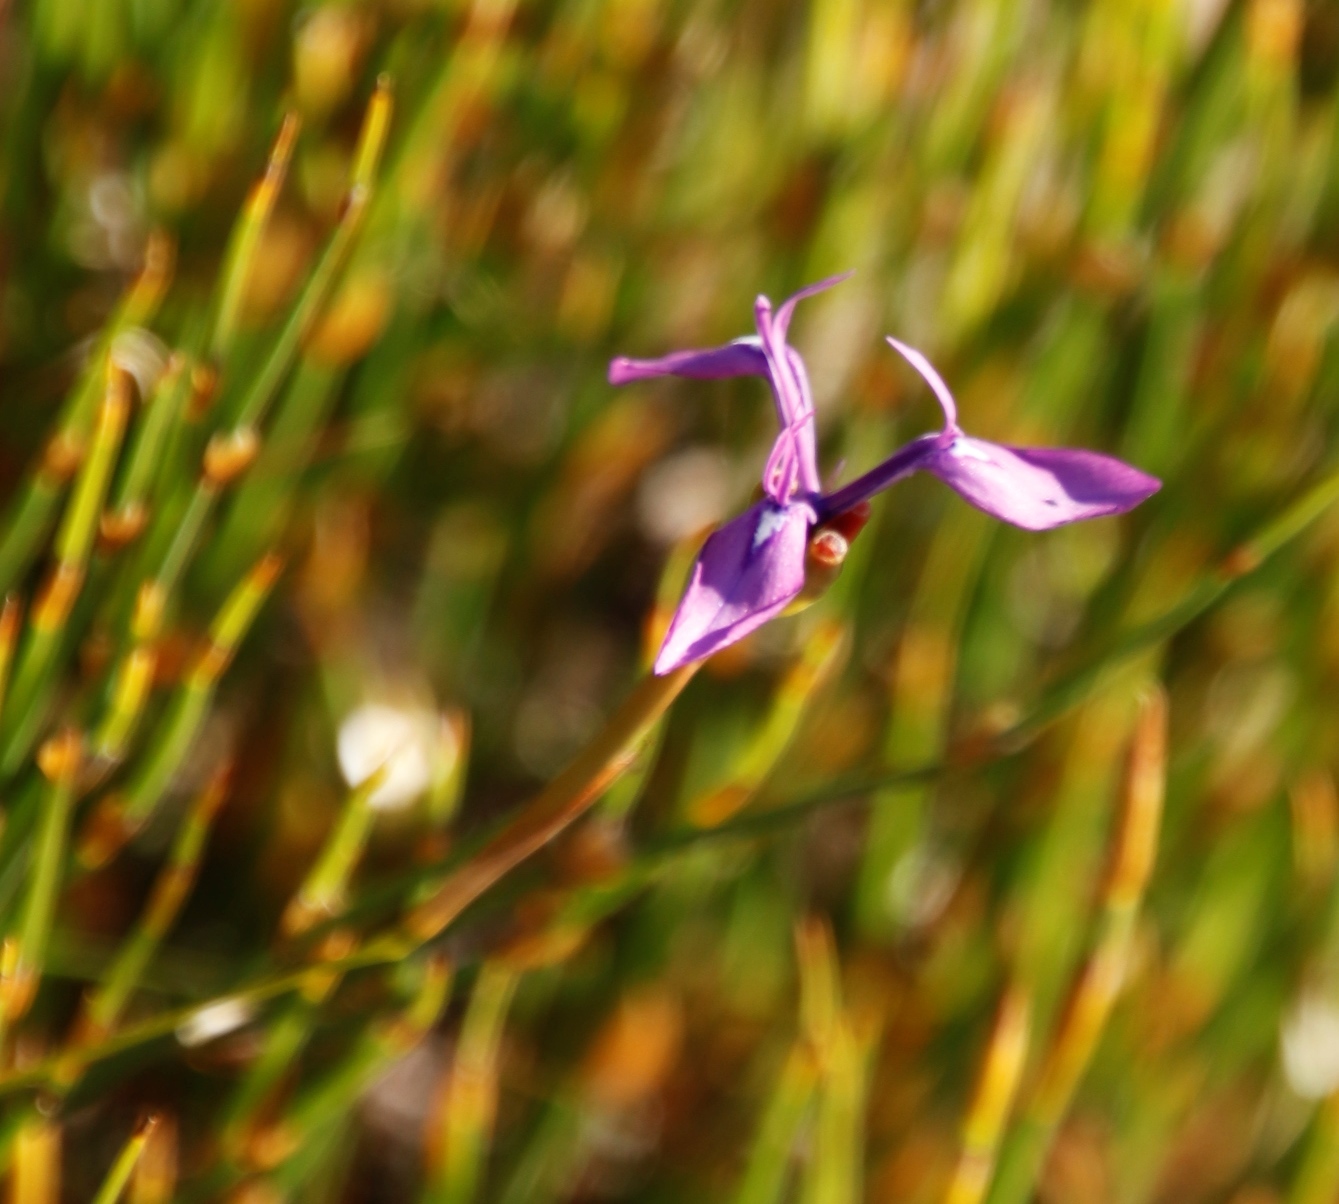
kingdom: Plantae
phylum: Tracheophyta
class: Liliopsida
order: Asparagales
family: Iridaceae
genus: Moraea
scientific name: Moraea tripetala
